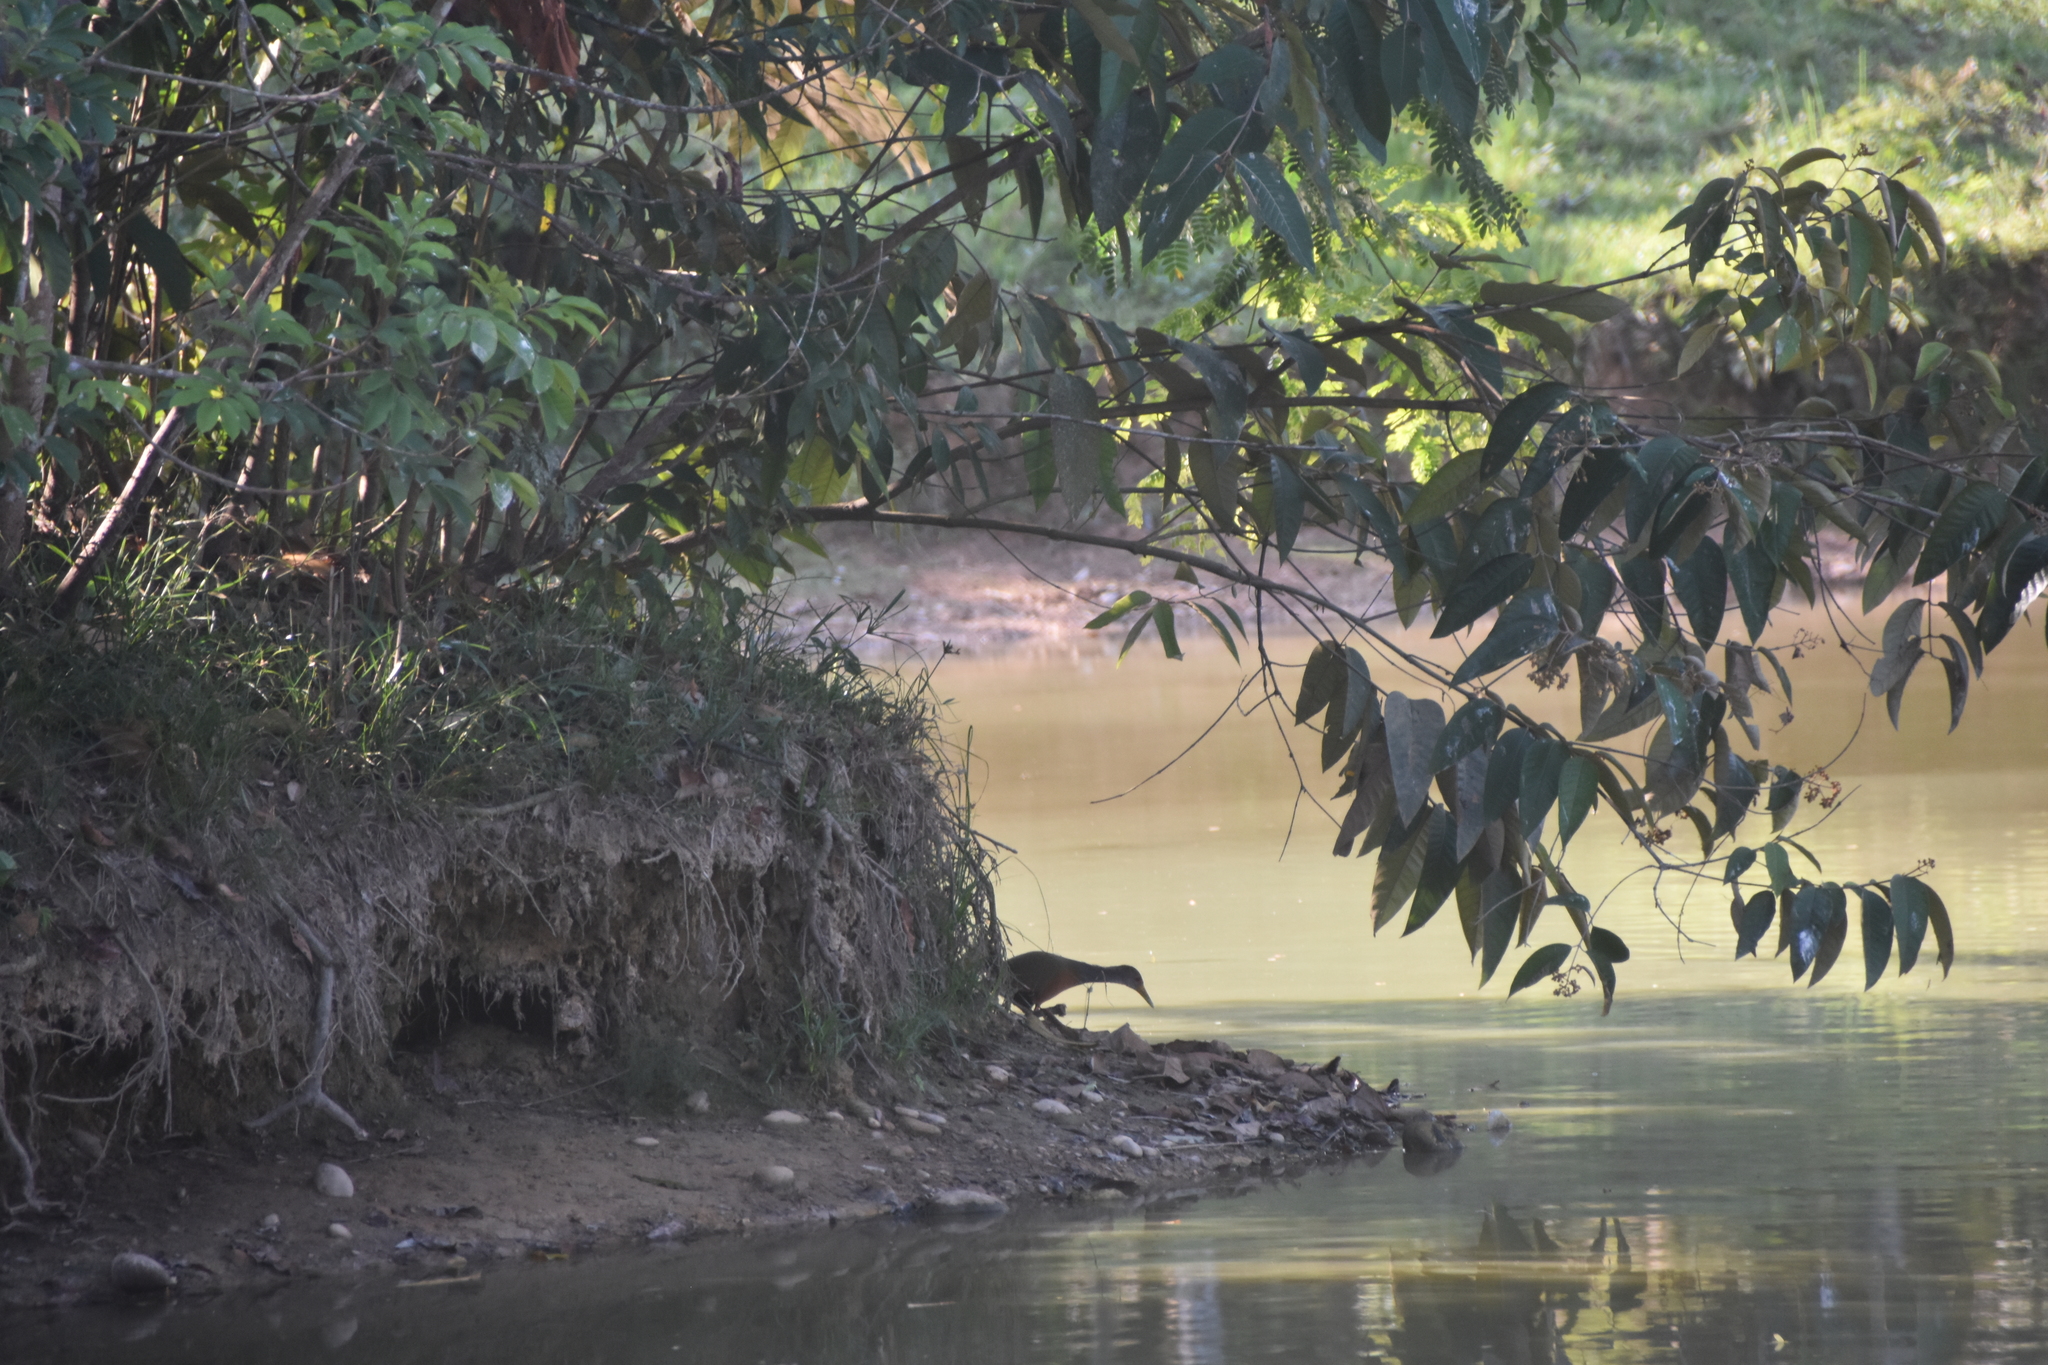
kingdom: Animalia
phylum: Chordata
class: Aves
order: Gruiformes
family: Rallidae
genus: Aramides
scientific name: Aramides cajanea
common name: Gray-necked wood-rail
